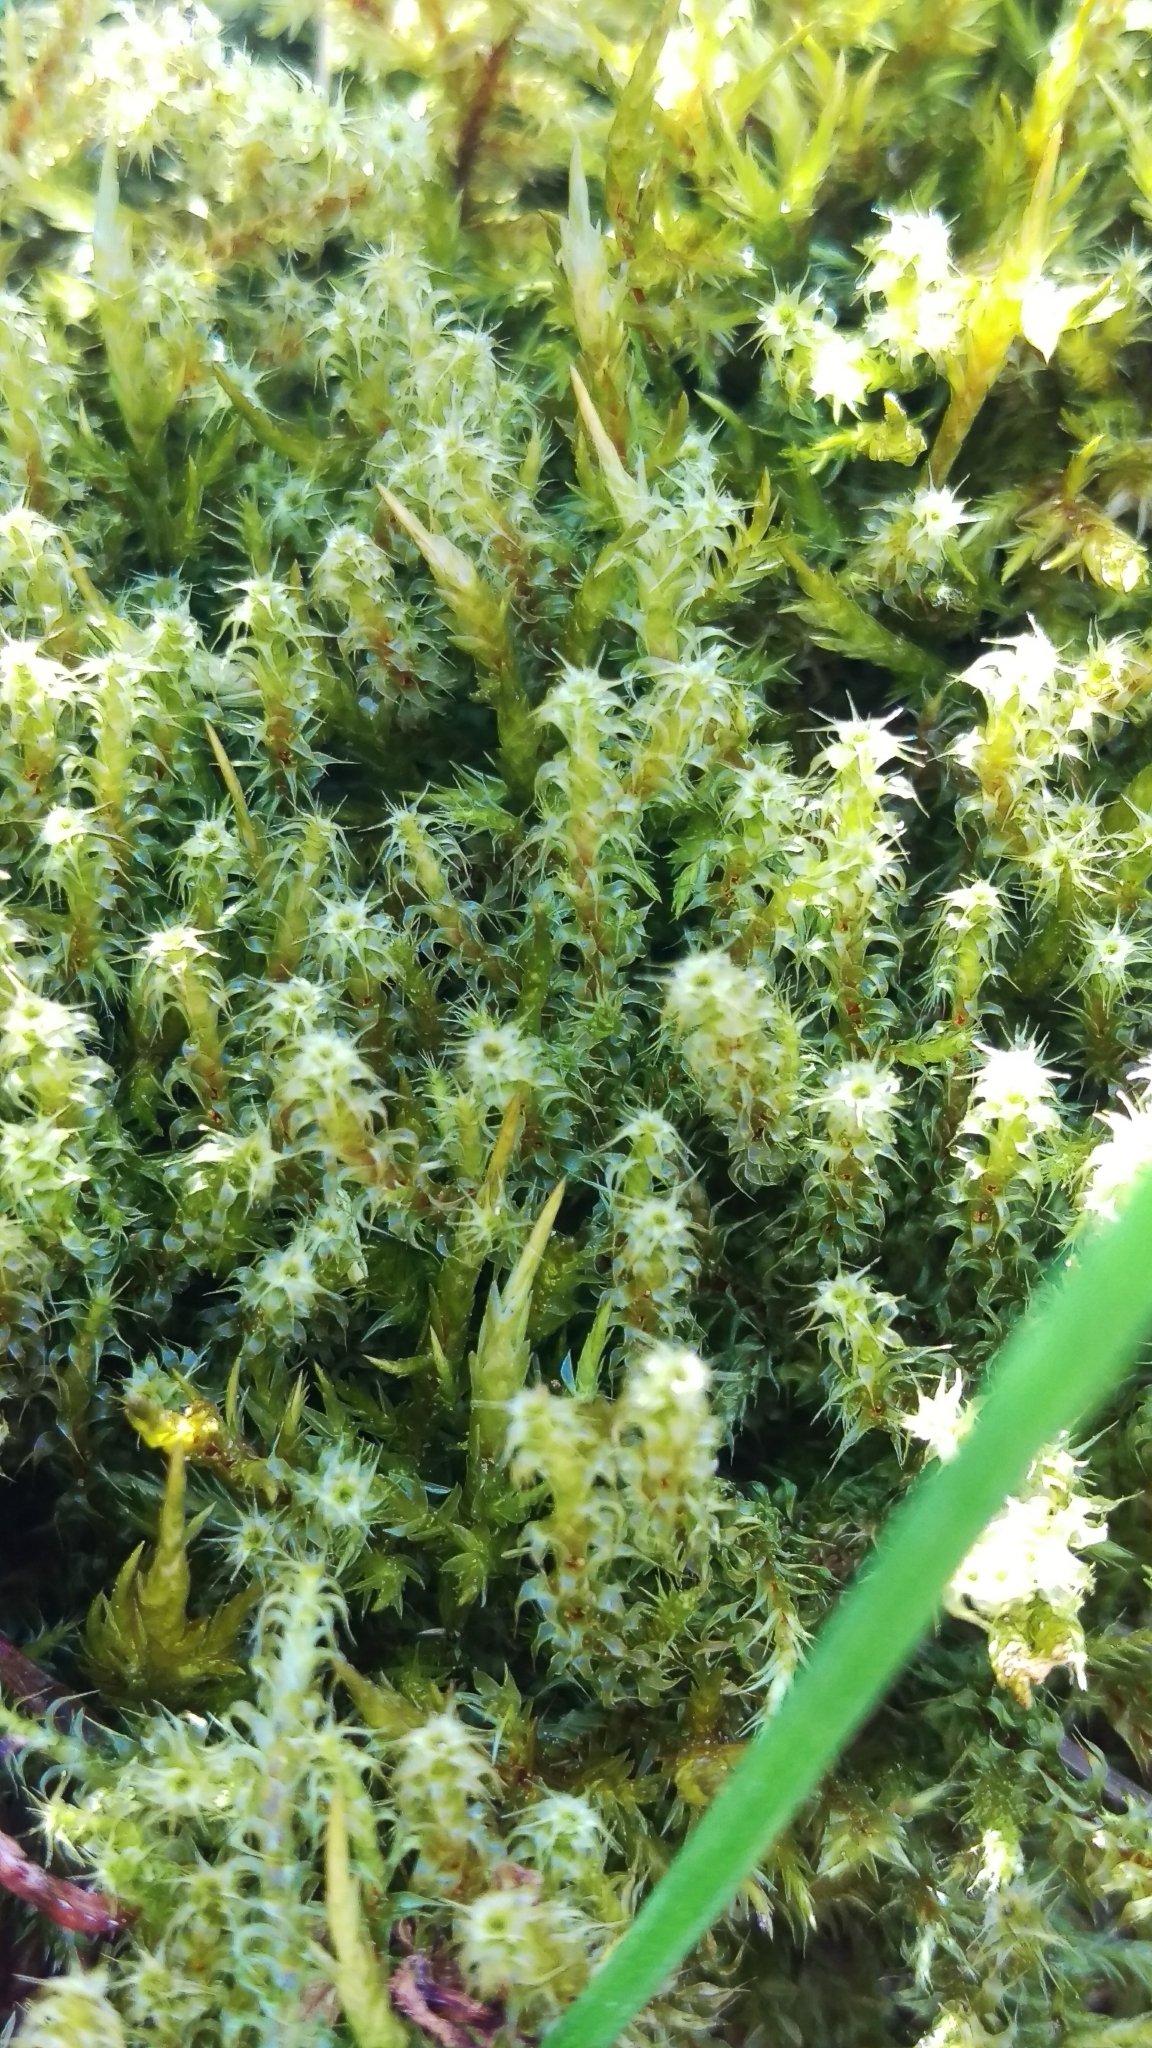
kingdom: Plantae
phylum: Bryophyta
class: Bryopsida
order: Hypnales
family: Hylocomiaceae
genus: Rhytidiadelphus
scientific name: Rhytidiadelphus squarrosus
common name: Springy turf-moss
